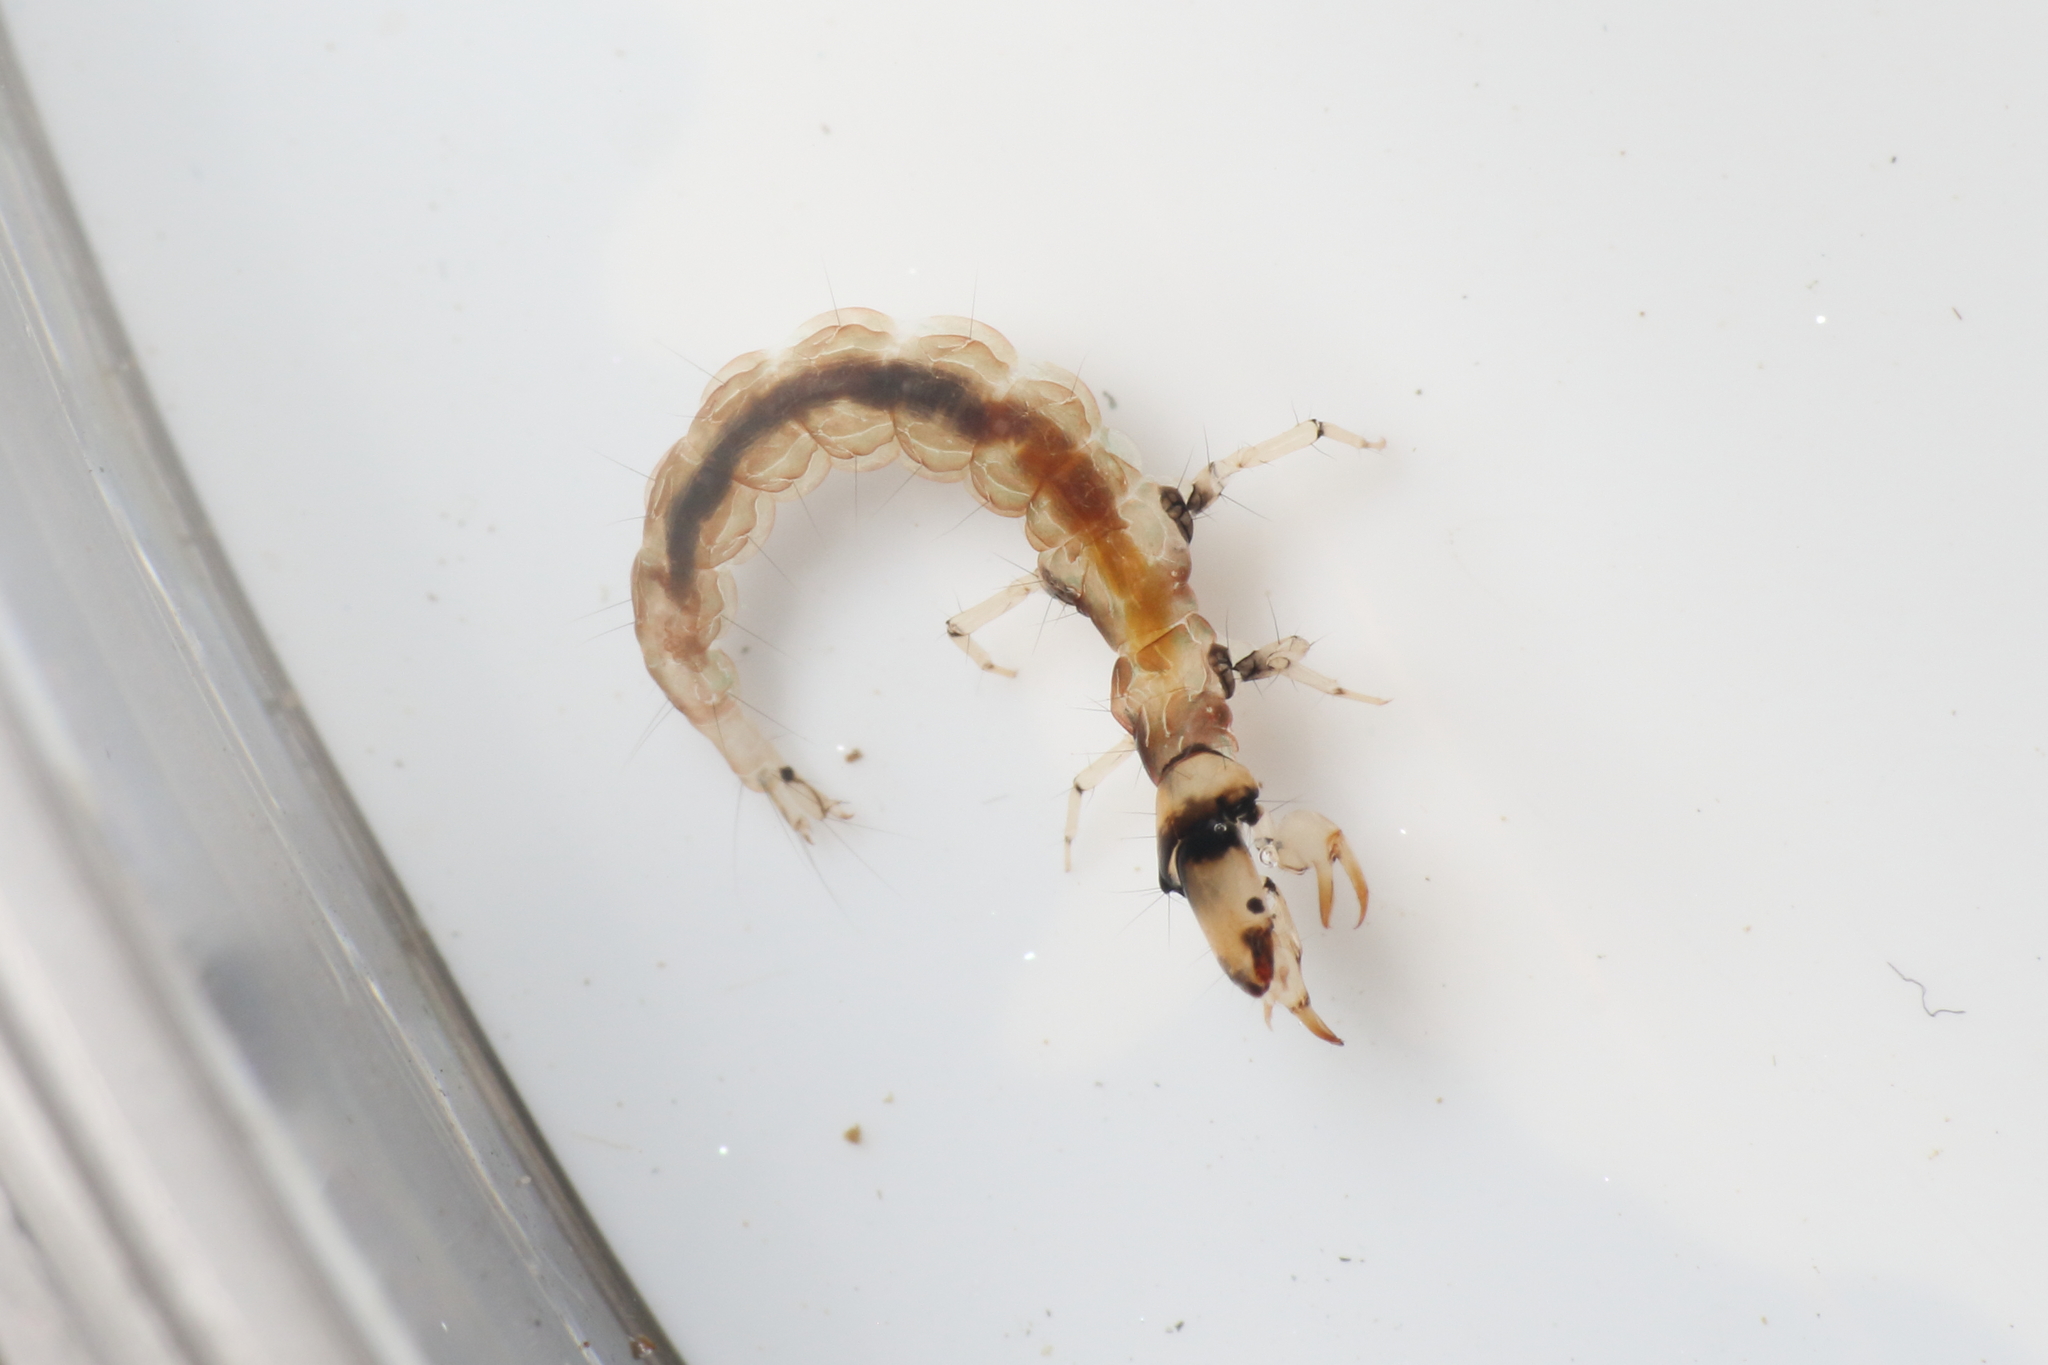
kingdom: Animalia
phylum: Arthropoda
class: Insecta
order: Trichoptera
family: Hydrobiosidae
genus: Hydrobiosis
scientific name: Hydrobiosis soror
